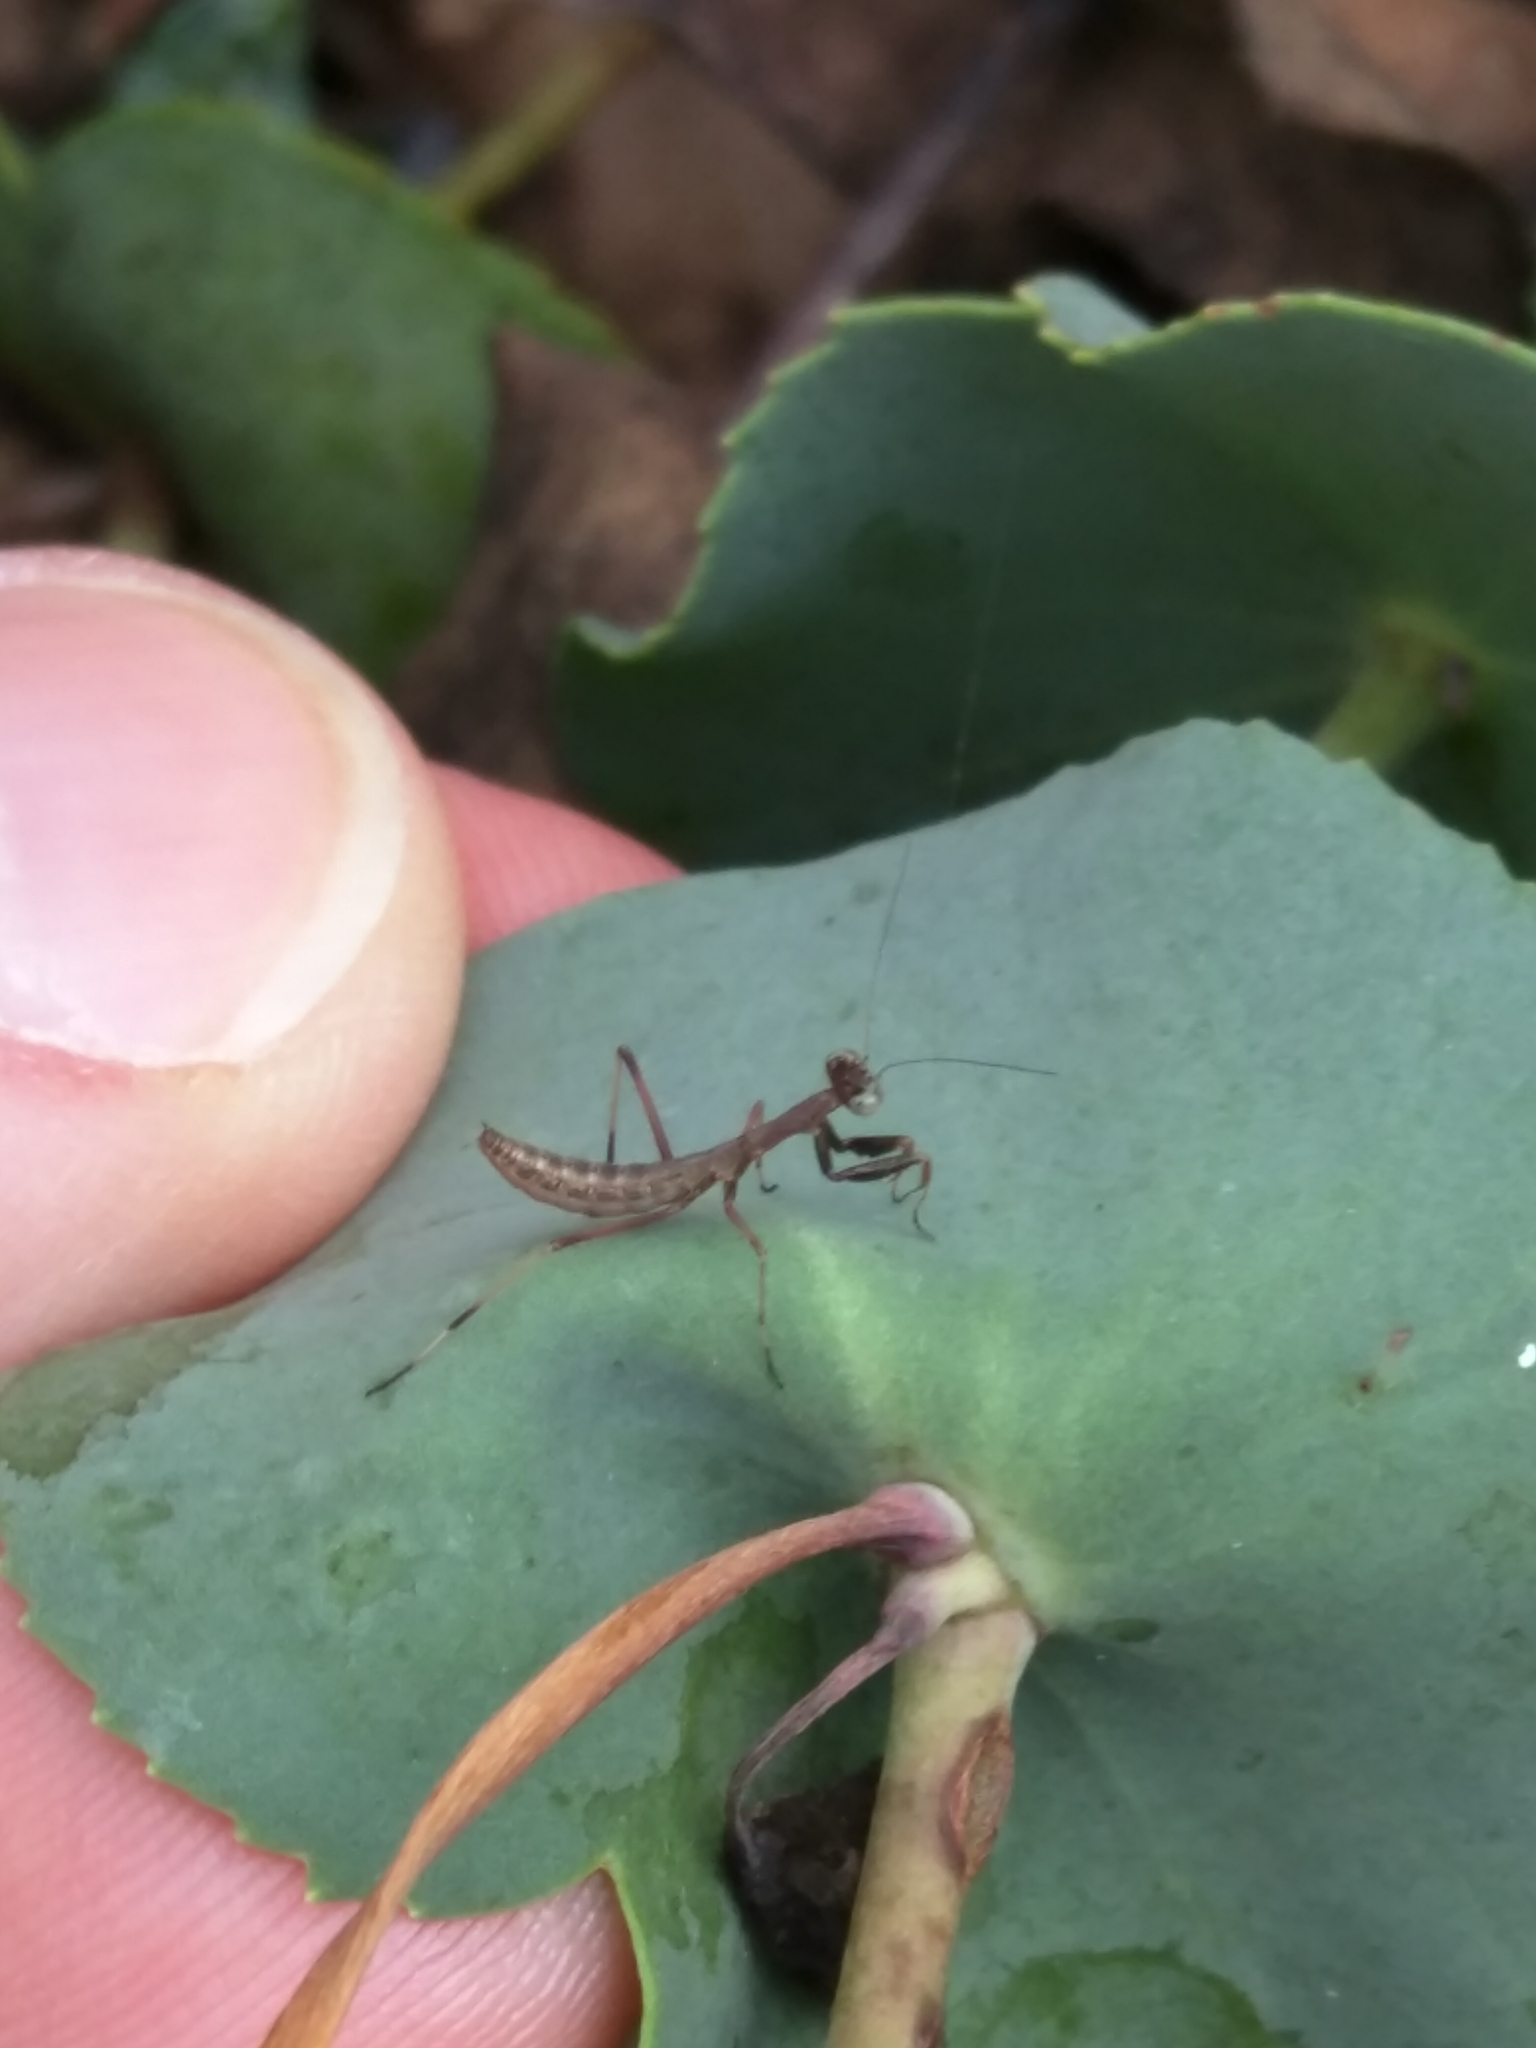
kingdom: Animalia
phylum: Arthropoda
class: Insecta
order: Mantodea
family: Mantidae
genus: Pseudomantis
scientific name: Pseudomantis albofimbriata
